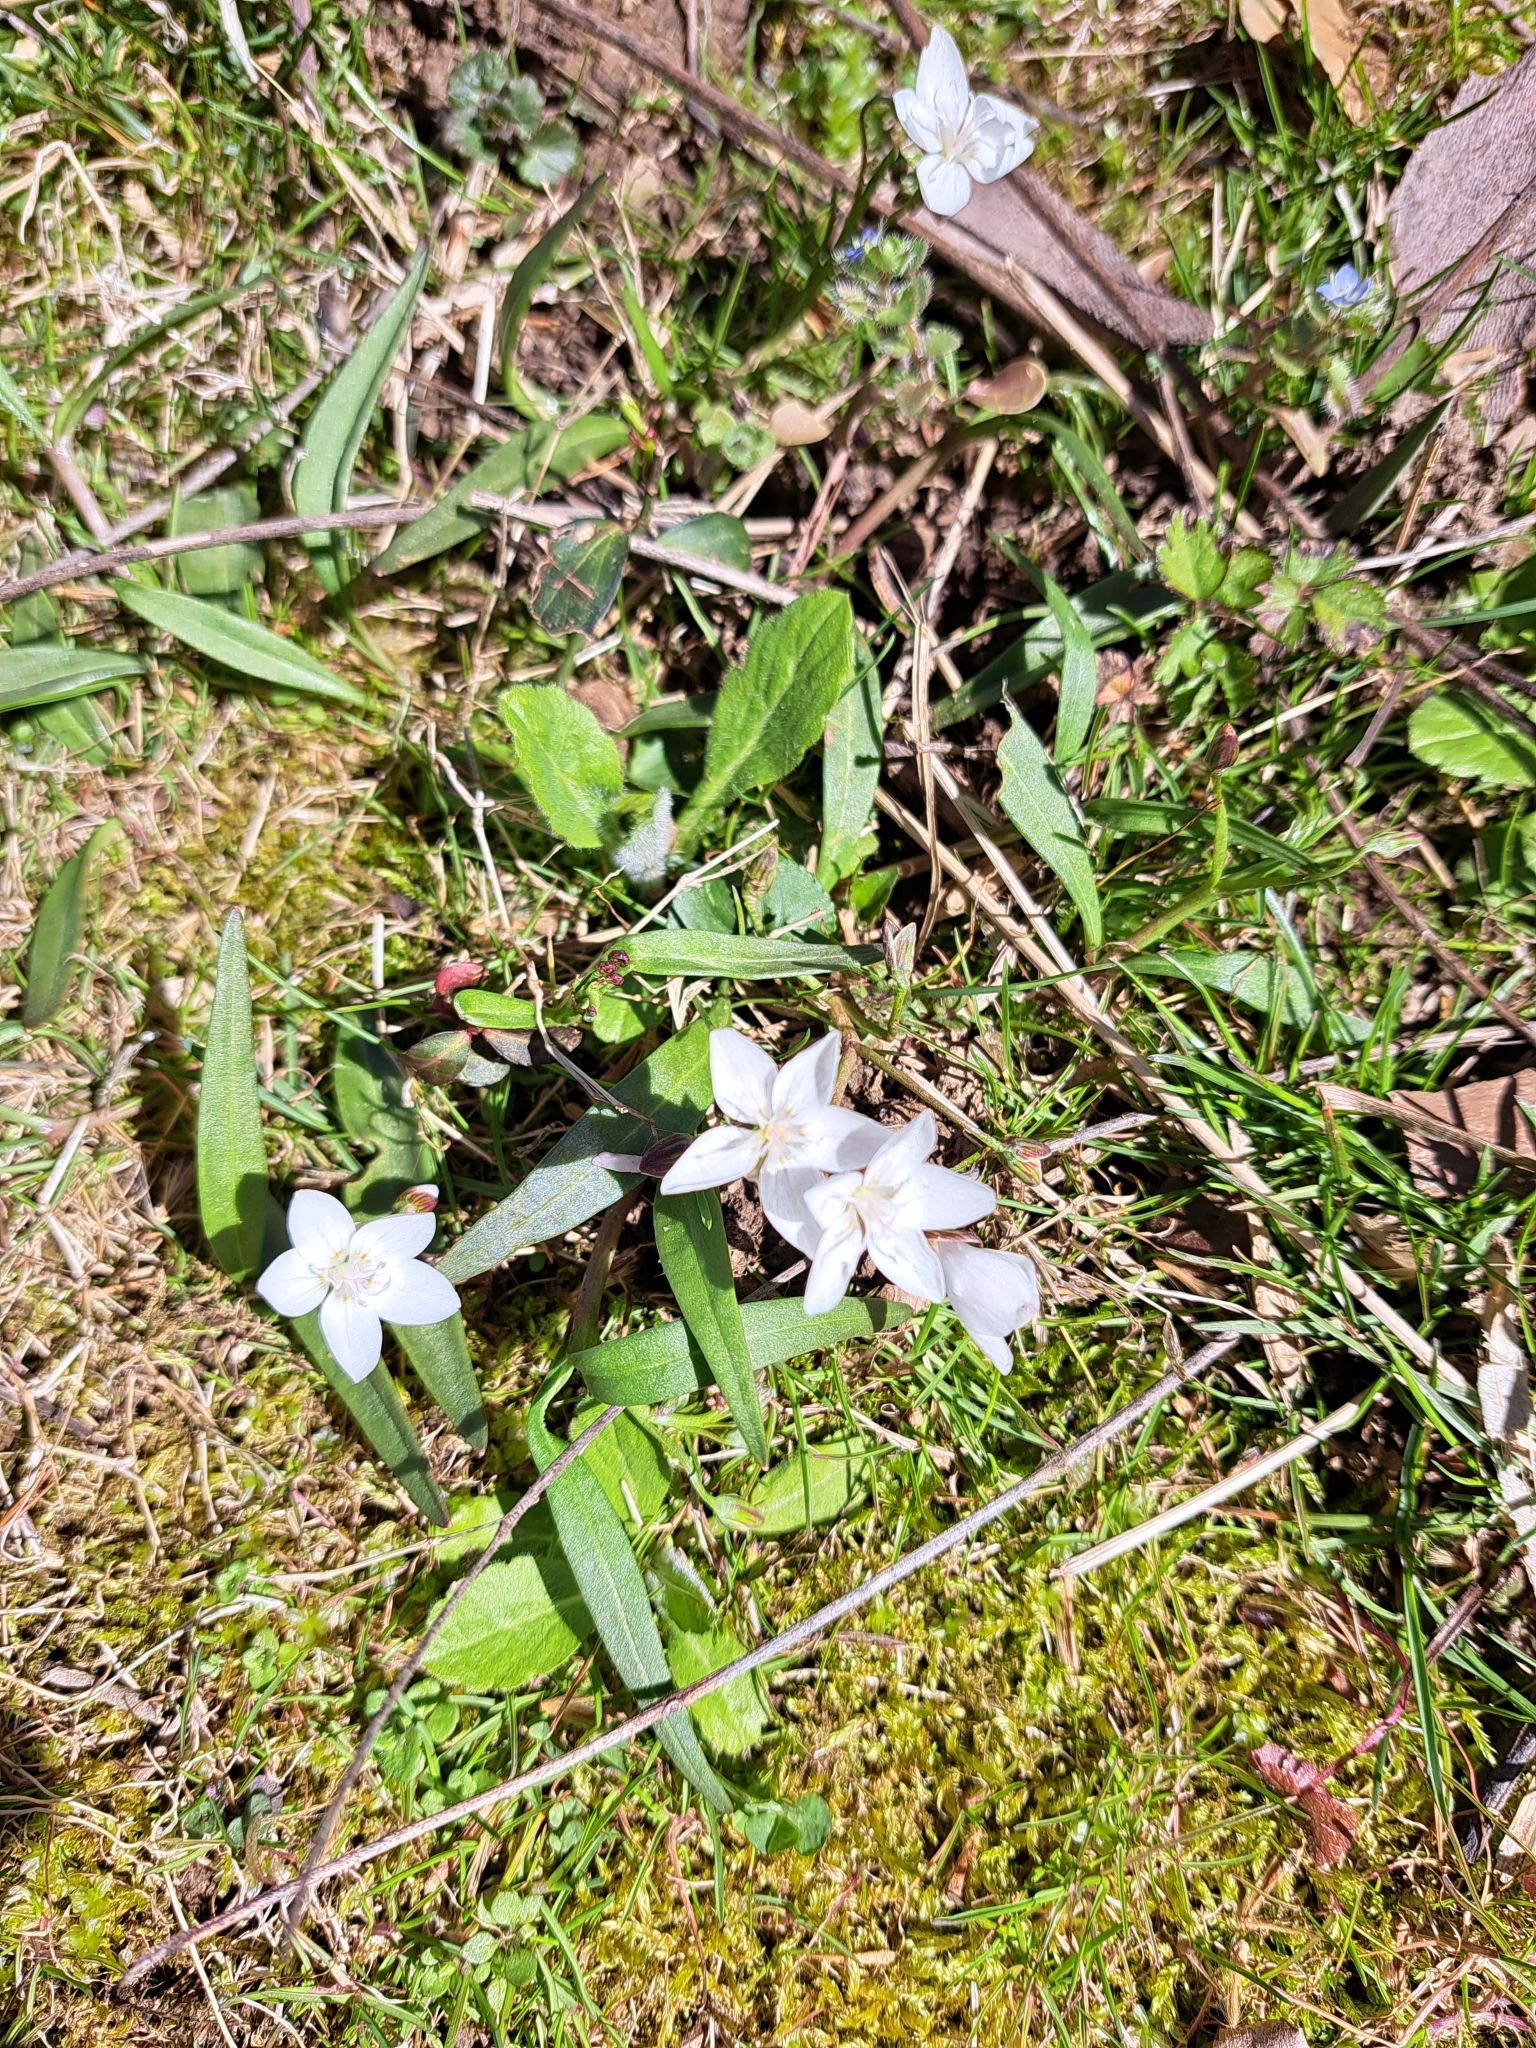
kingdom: Plantae
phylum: Tracheophyta
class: Magnoliopsida
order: Caryophyllales
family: Montiaceae
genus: Claytonia
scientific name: Claytonia virginica
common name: Virginia springbeauty
